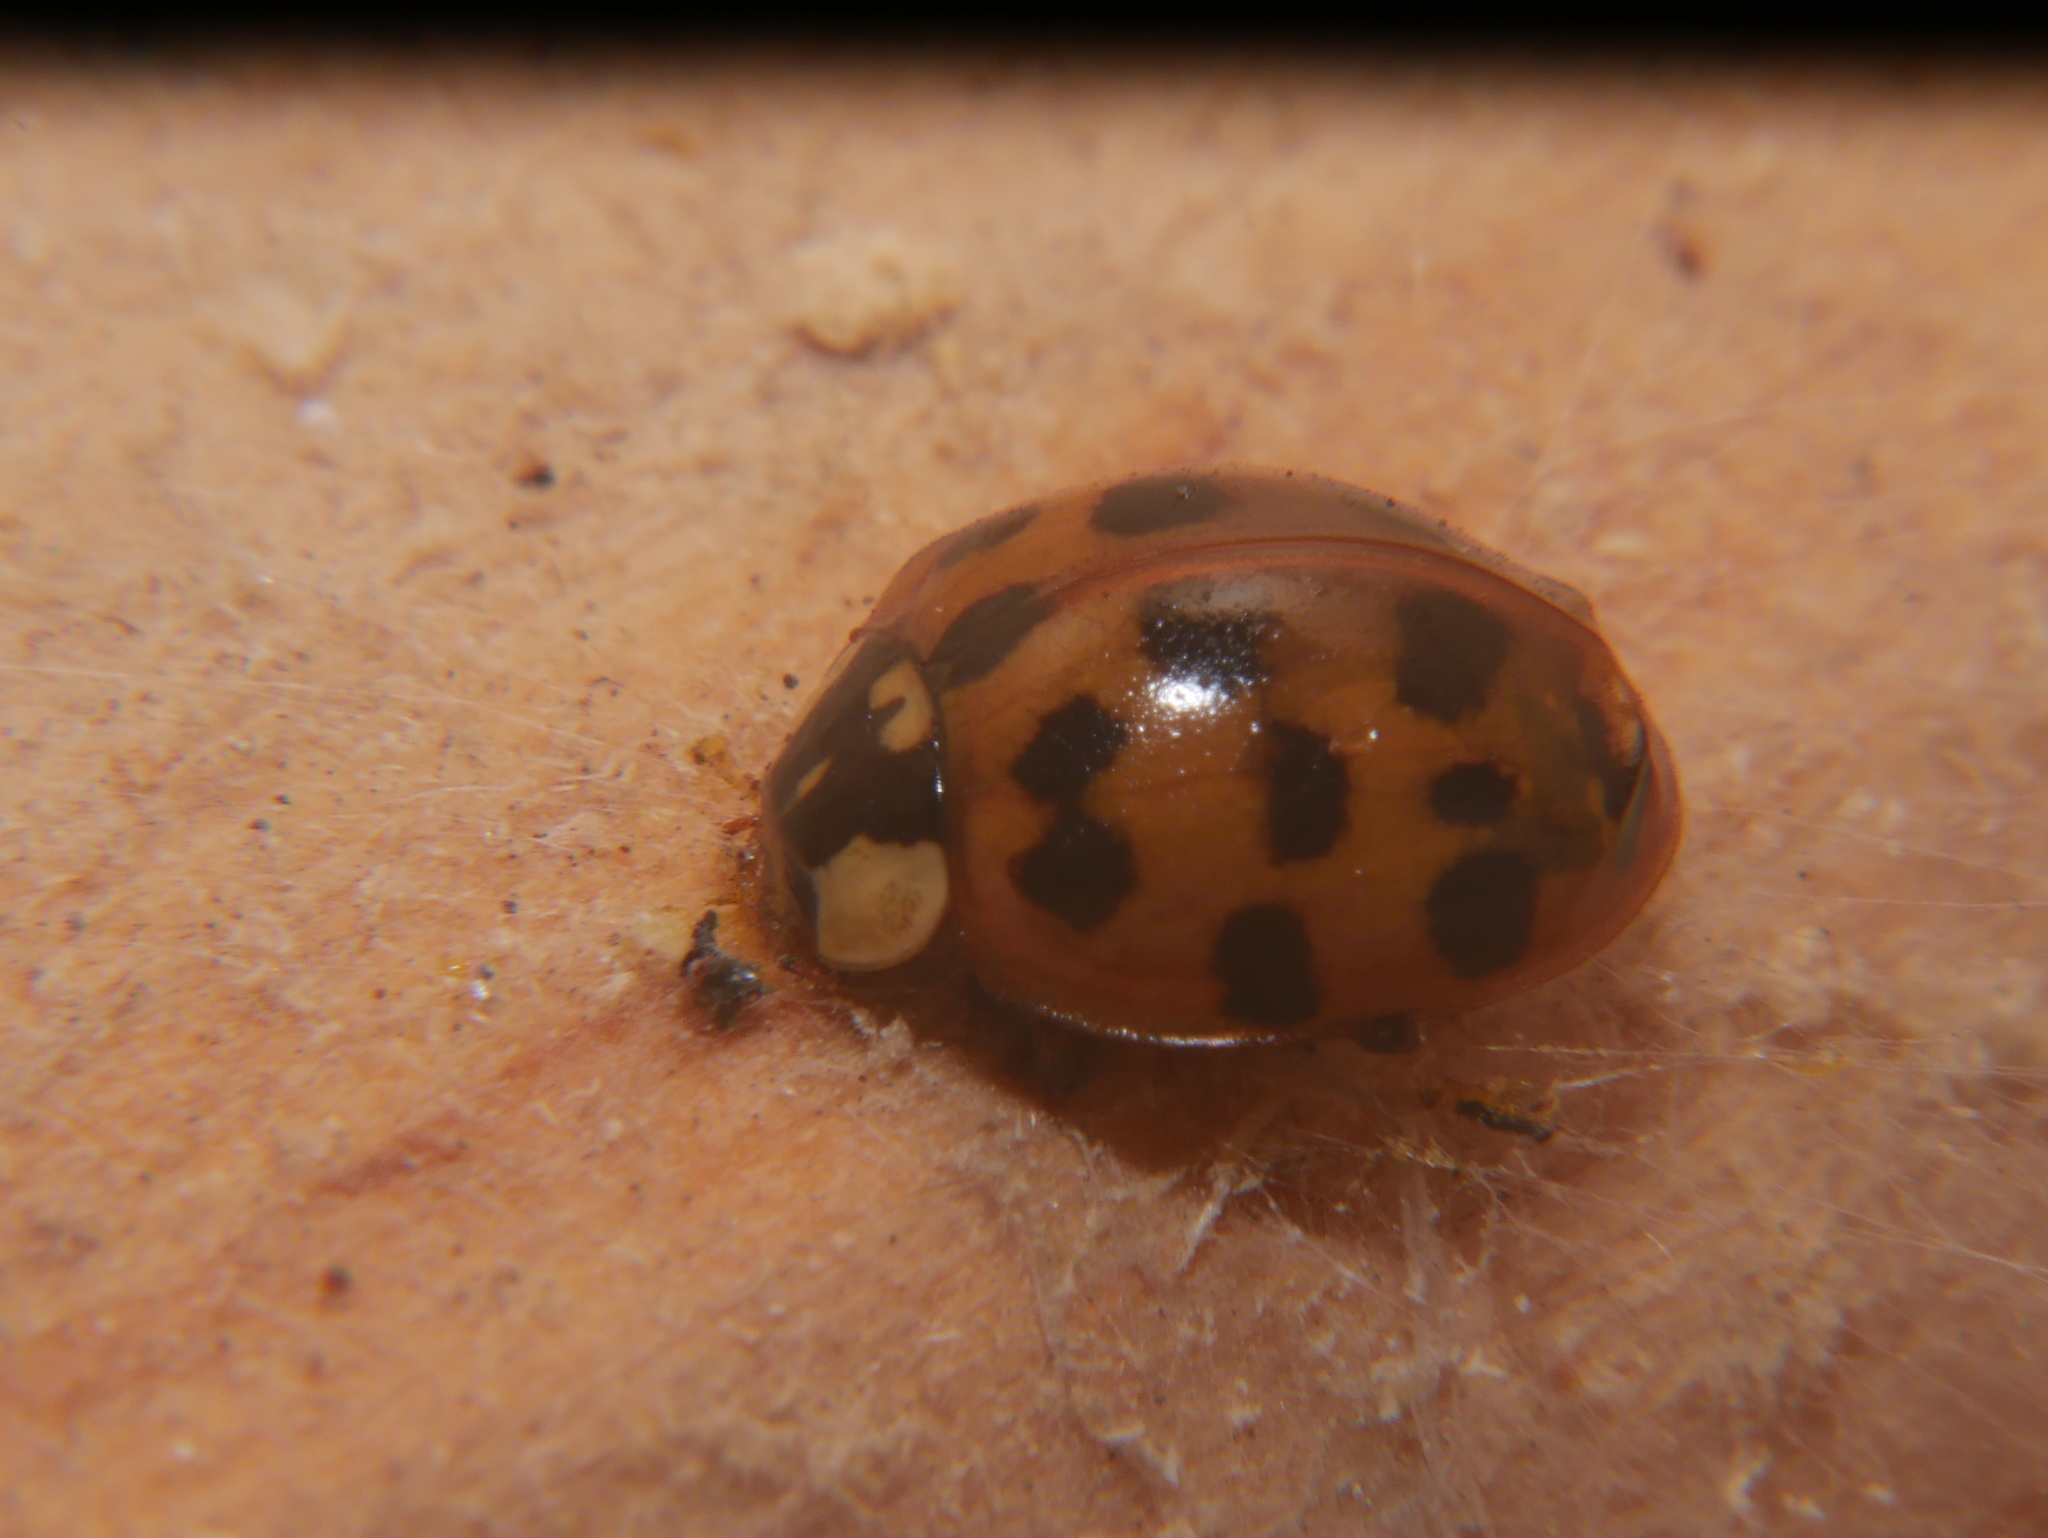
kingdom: Animalia
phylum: Arthropoda
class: Insecta
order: Coleoptera
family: Coccinellidae
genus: Harmonia
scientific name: Harmonia axyridis
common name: Harlequin ladybird
